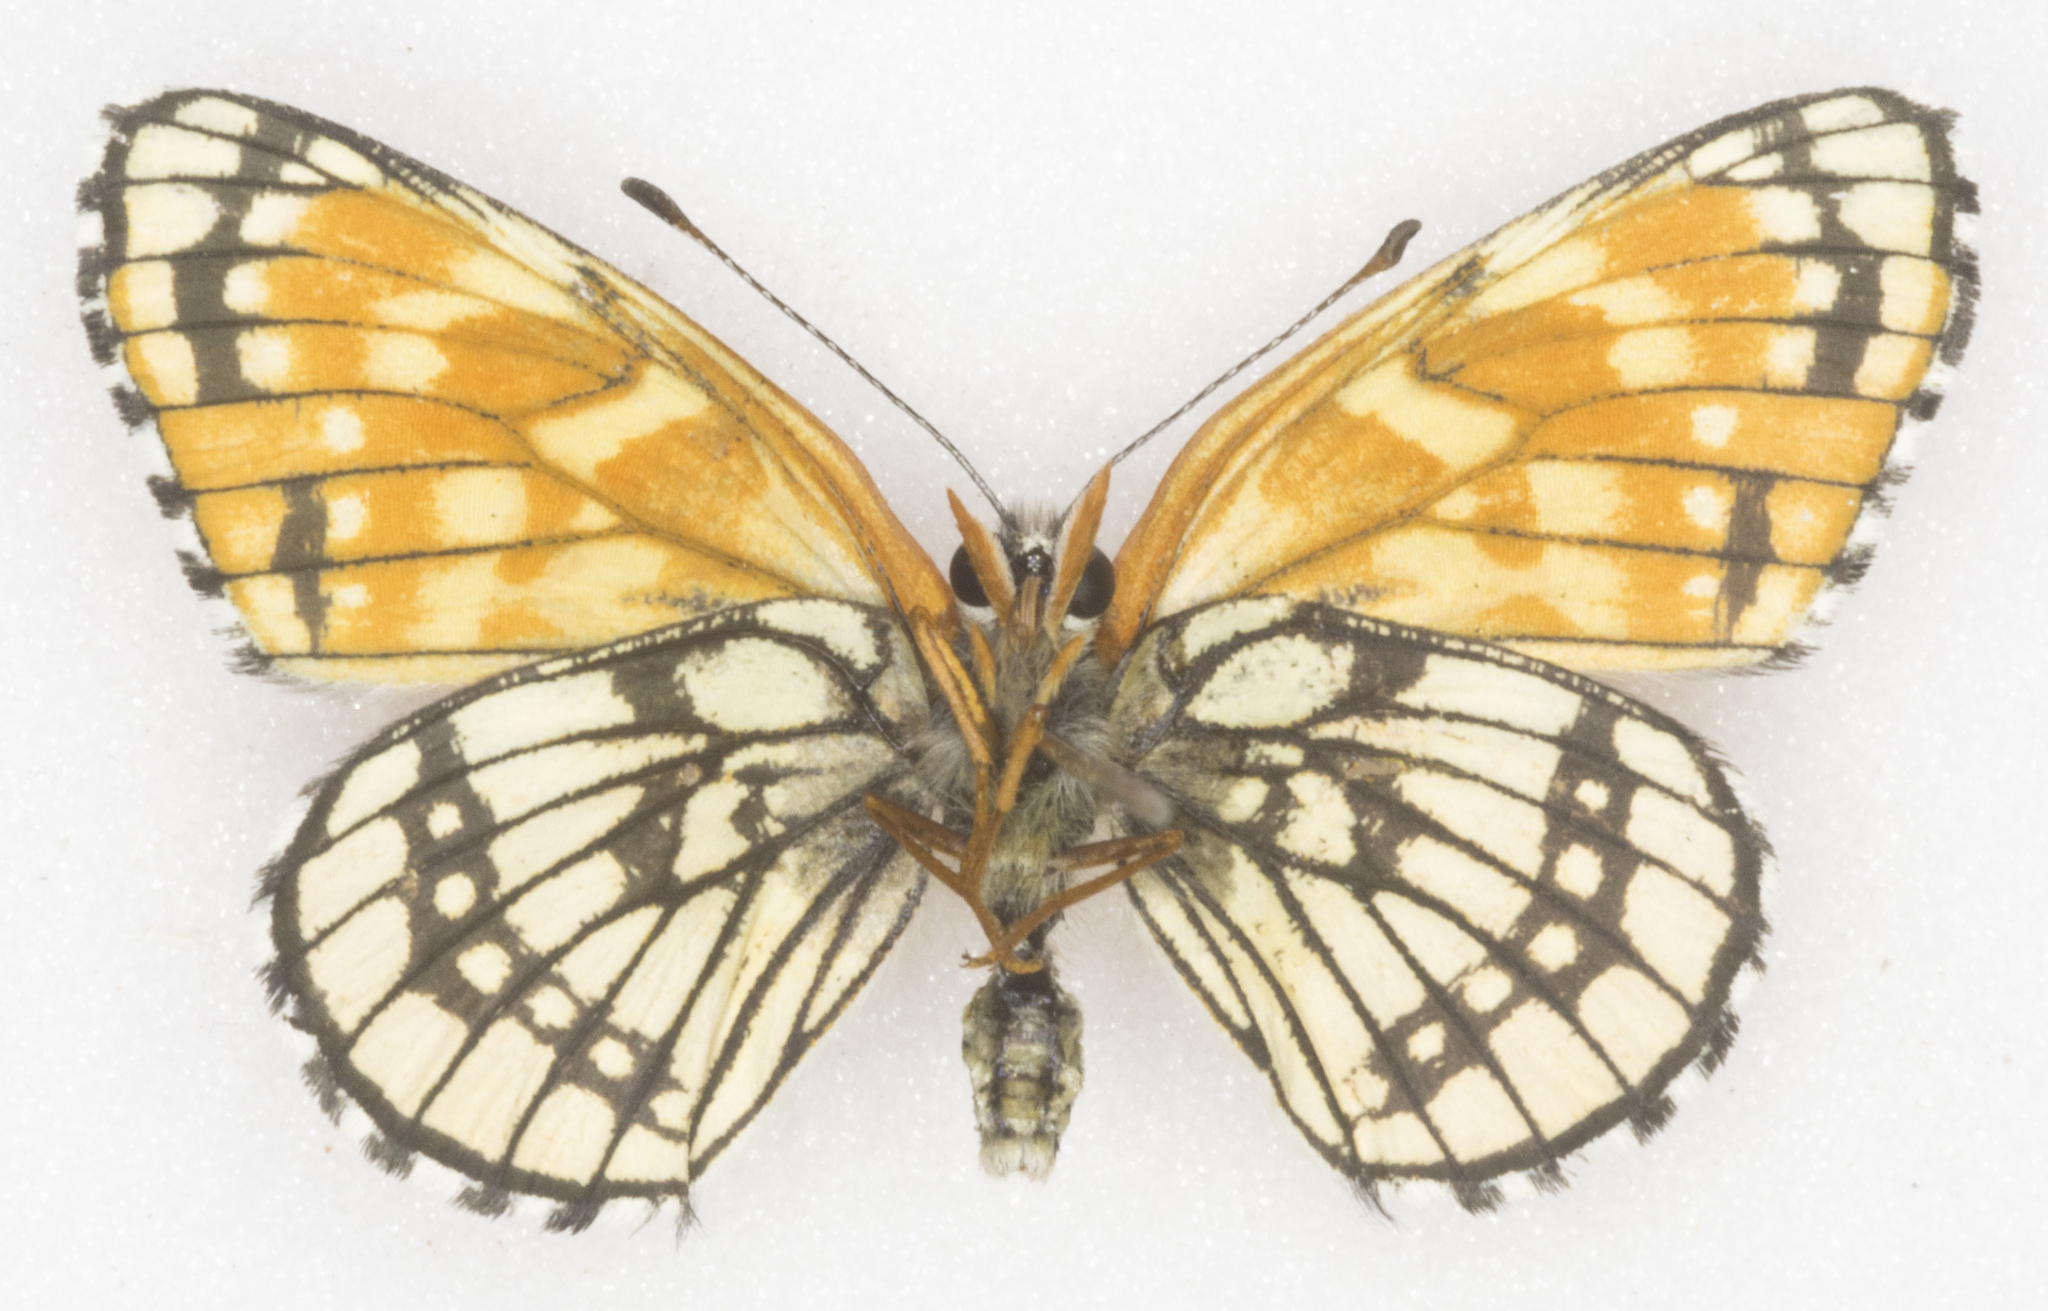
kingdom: Animalia
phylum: Arthropoda
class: Insecta
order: Lepidoptera
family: Nymphalidae
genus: Thessalia
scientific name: Thessalia leanira
